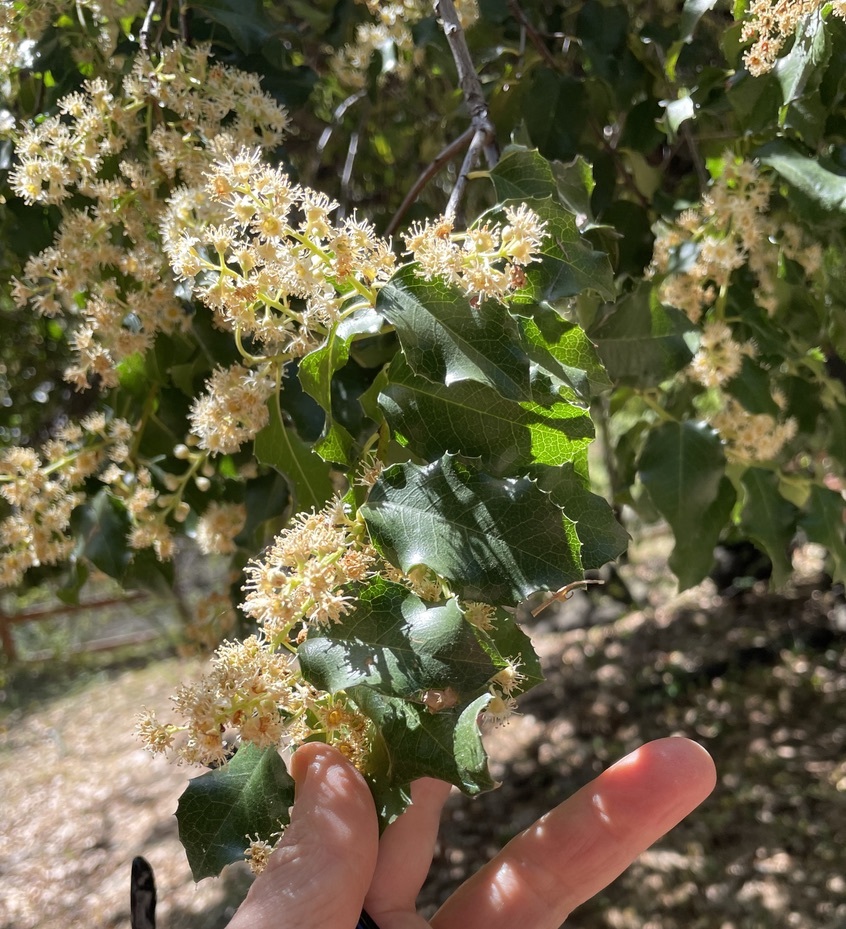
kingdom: Plantae
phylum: Tracheophyta
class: Magnoliopsida
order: Rosales
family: Rosaceae
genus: Prunus
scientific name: Prunus ilicifolia
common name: Hollyleaf cherry
